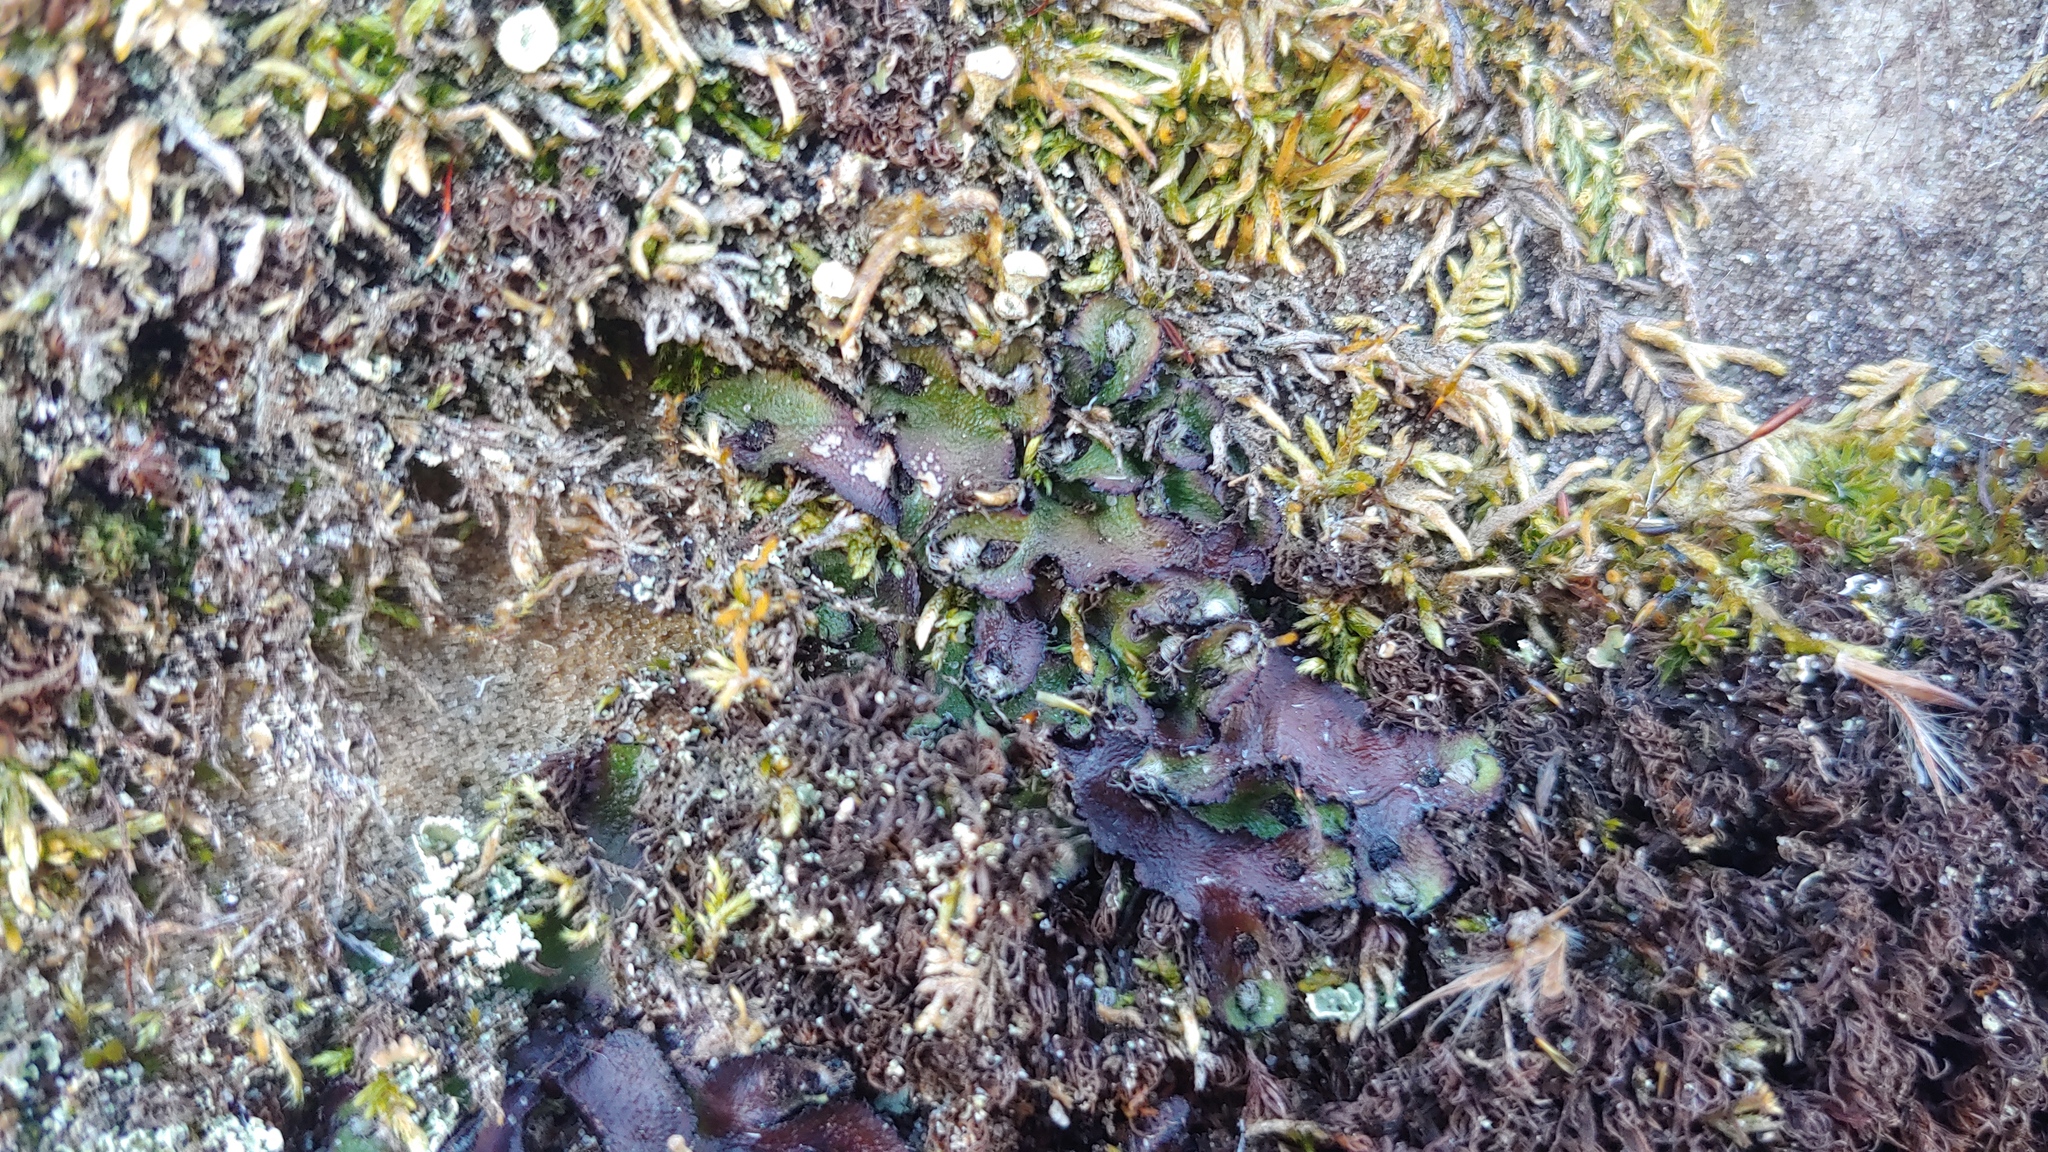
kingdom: Plantae
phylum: Marchantiophyta
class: Marchantiopsida
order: Marchantiales
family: Aytoniaceae
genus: Reboulia
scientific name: Reboulia hemisphaerica
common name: Purple-margined liverwort
